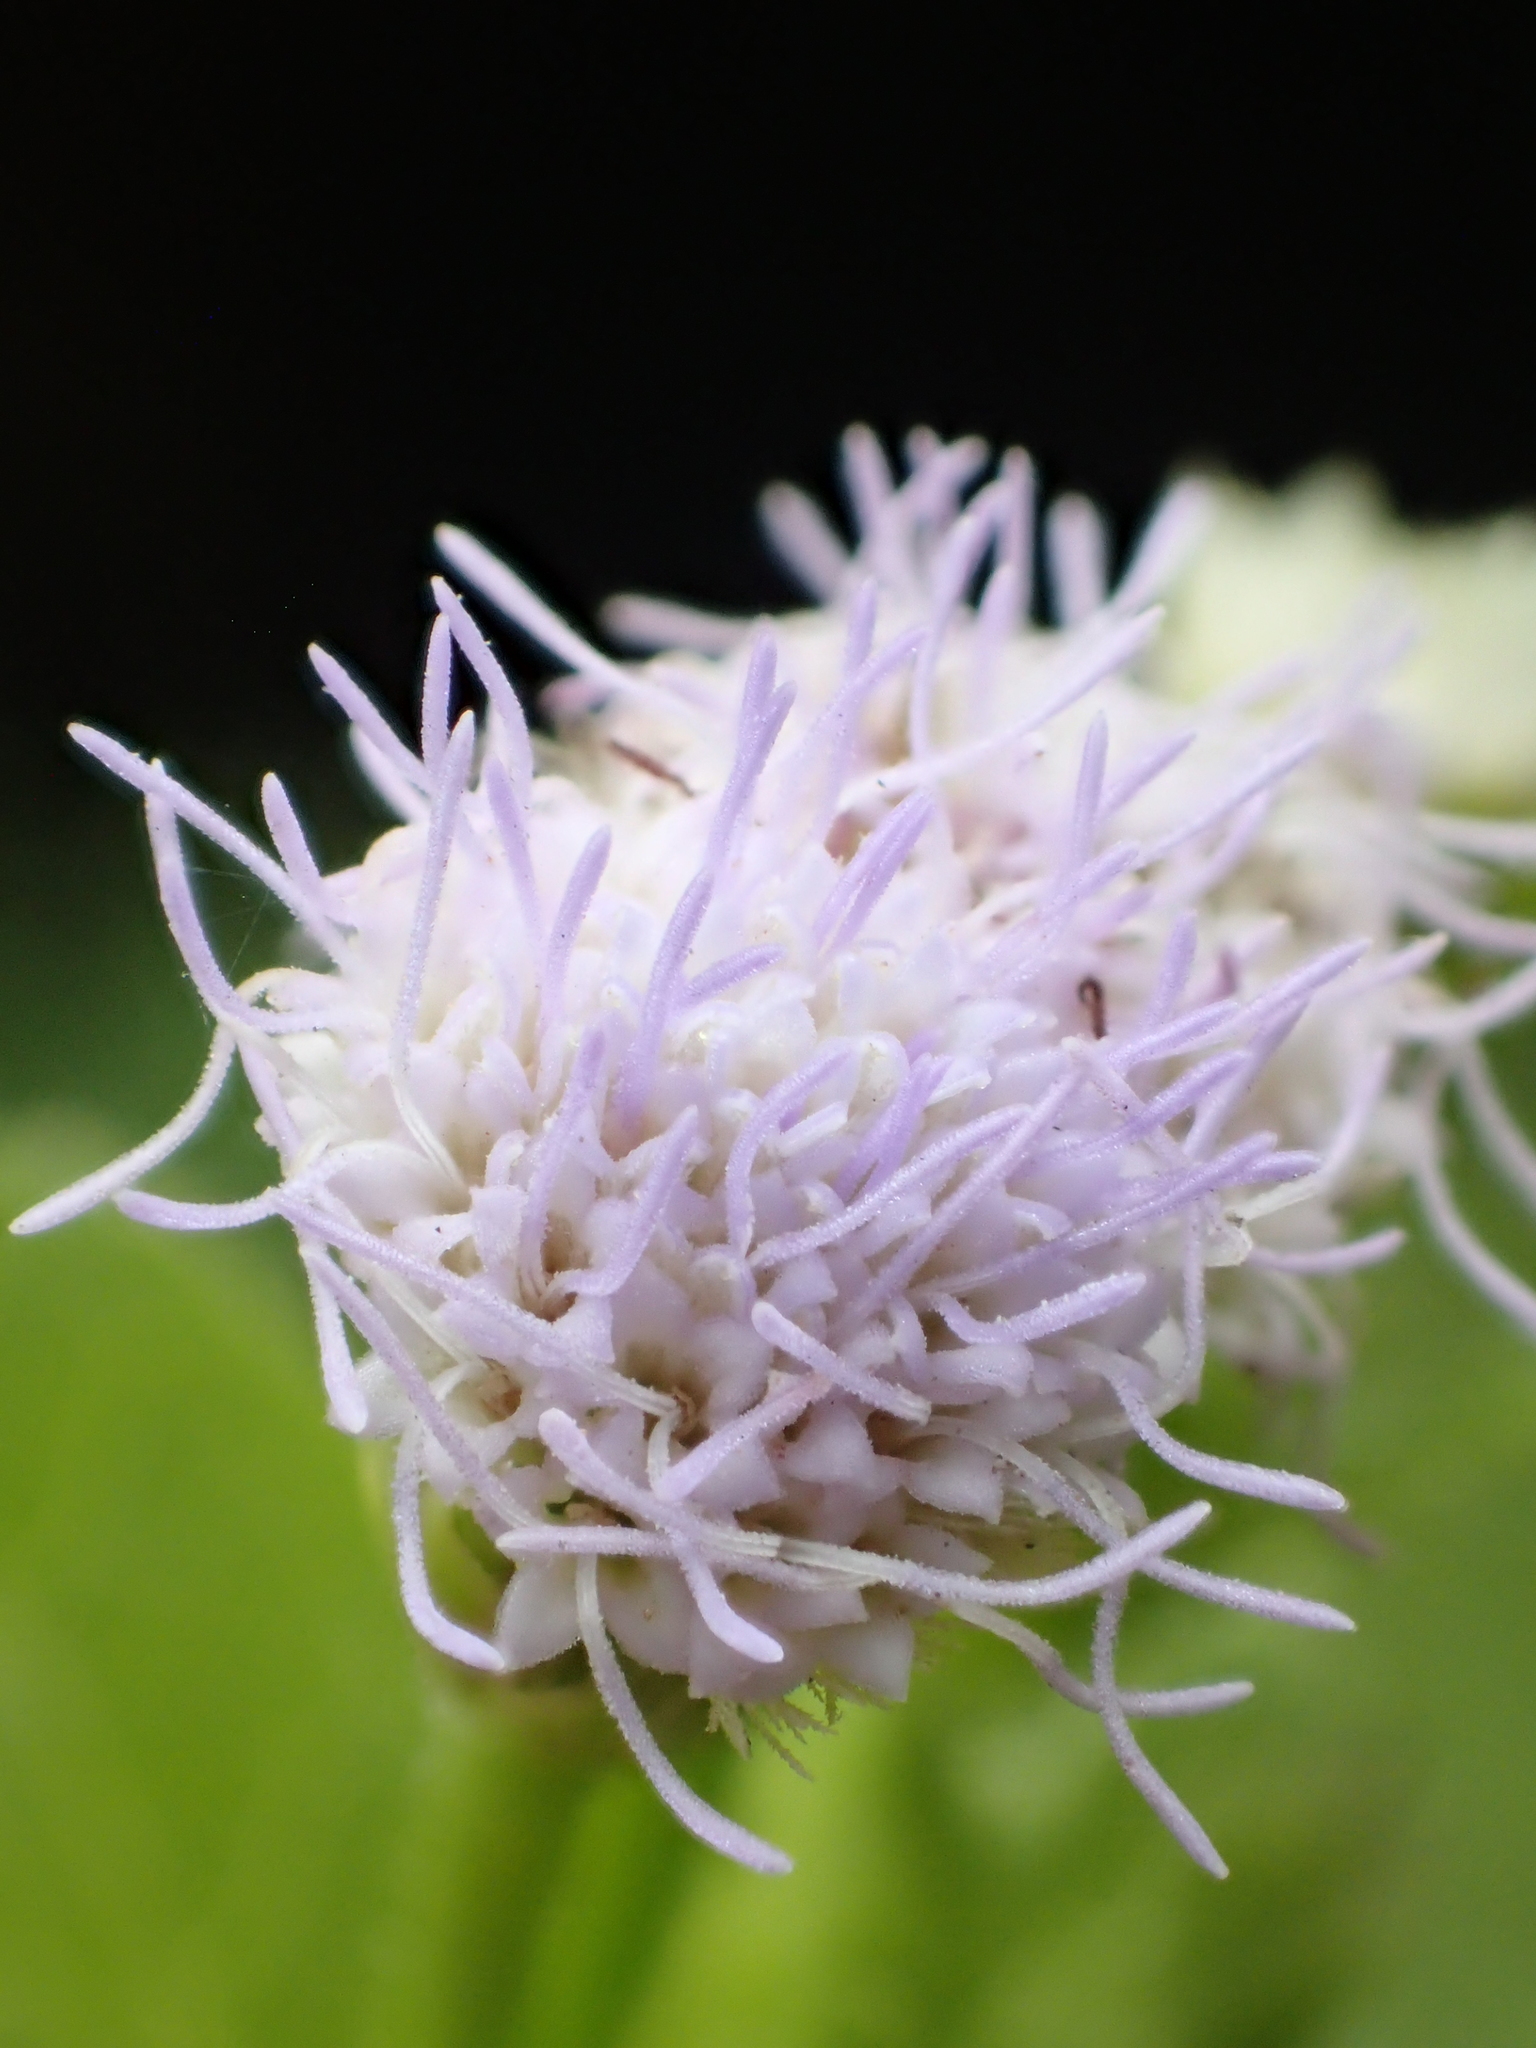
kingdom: Plantae
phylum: Tracheophyta
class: Magnoliopsida
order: Asterales
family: Asteraceae
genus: Praxelis
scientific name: Praxelis clematidea
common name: Praxelis
